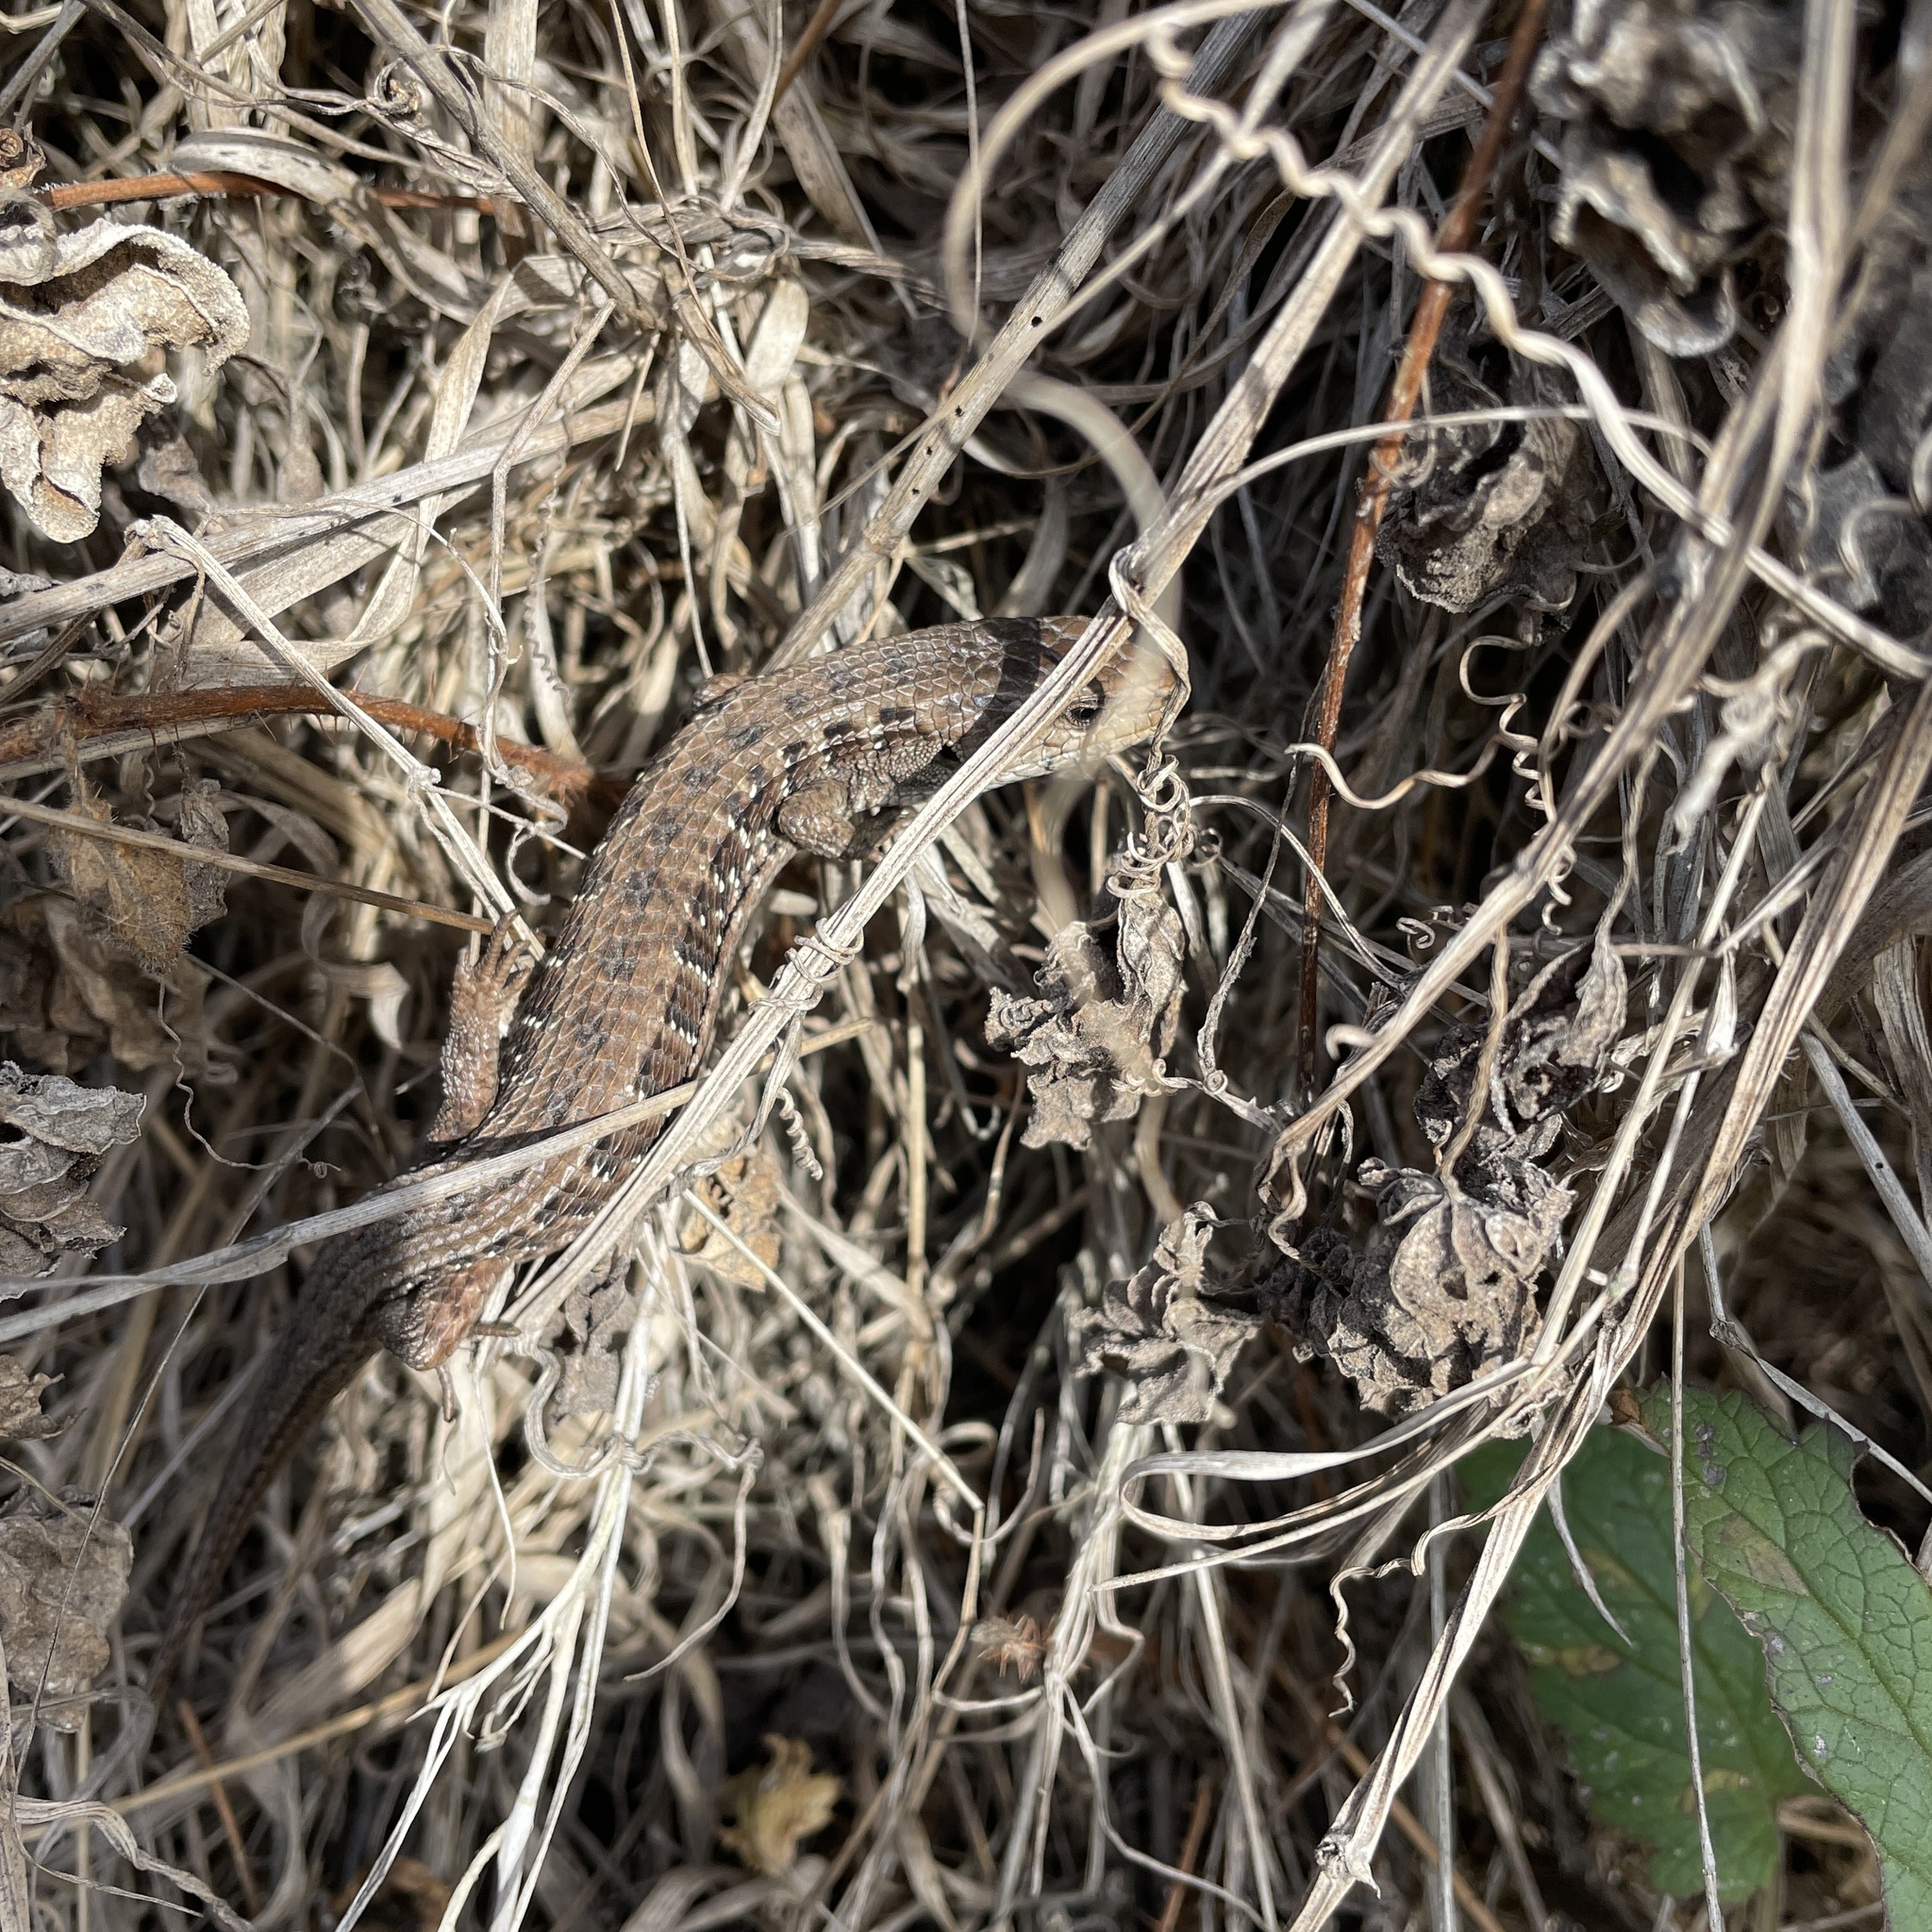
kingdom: Animalia
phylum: Chordata
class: Squamata
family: Anguidae
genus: Elgaria
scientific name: Elgaria coerulea
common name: Northern alligator lizard
